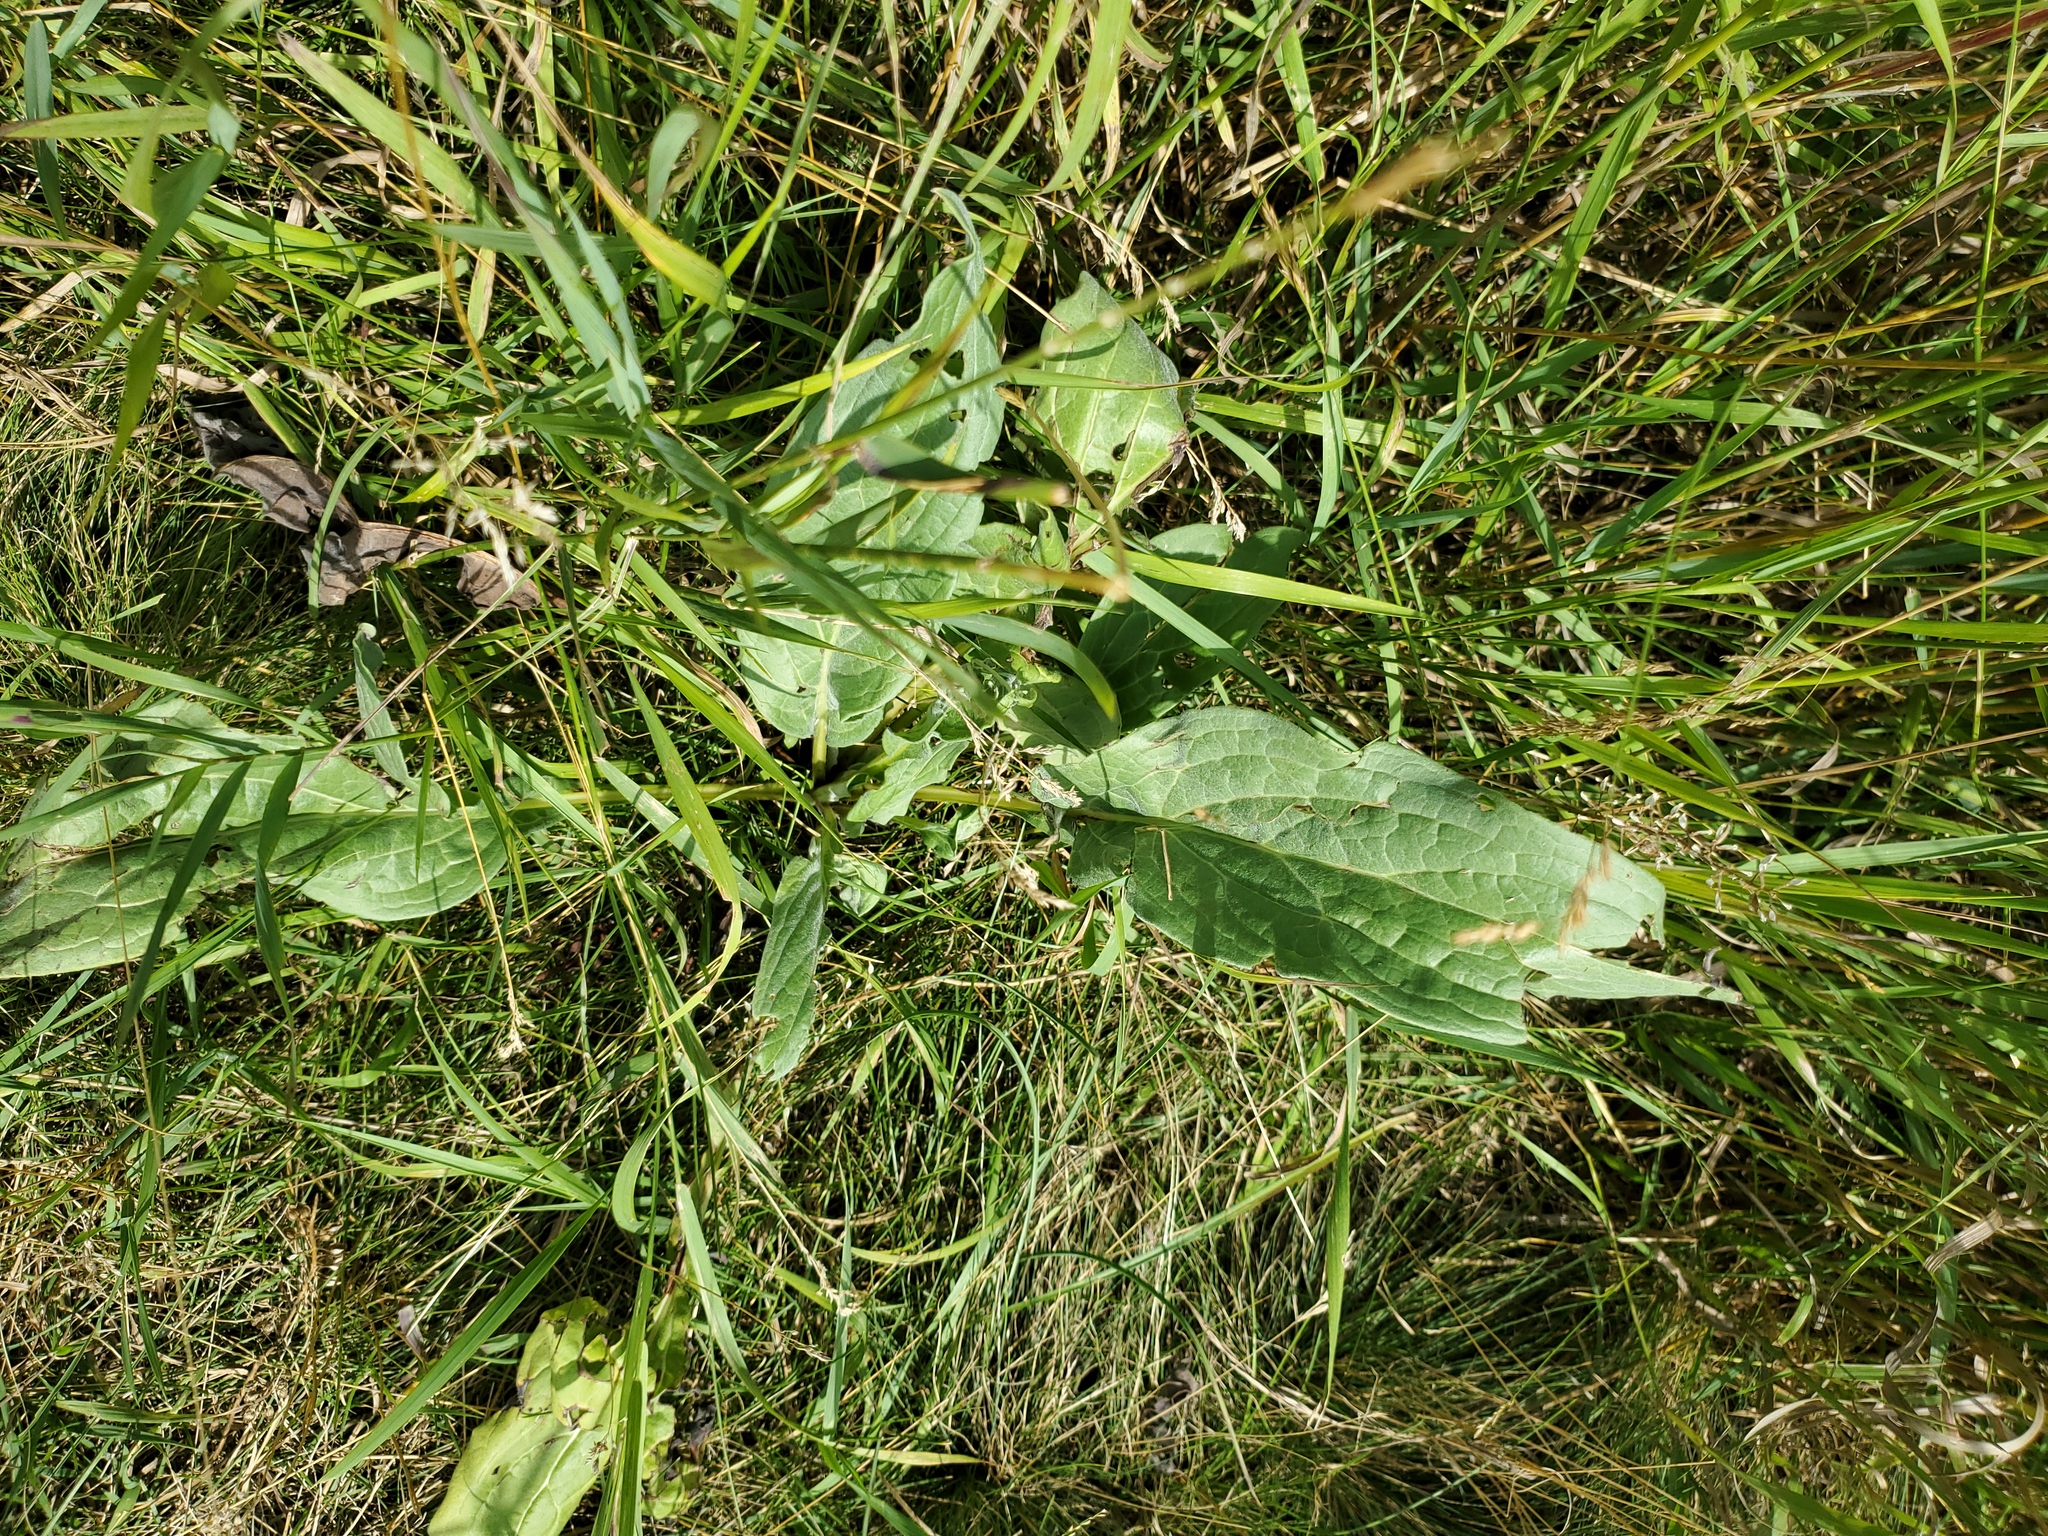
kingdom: Plantae
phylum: Tracheophyta
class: Magnoliopsida
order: Boraginales
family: Boraginaceae
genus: Cynoglossum
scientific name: Cynoglossum officinale
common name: Hound's-tongue
